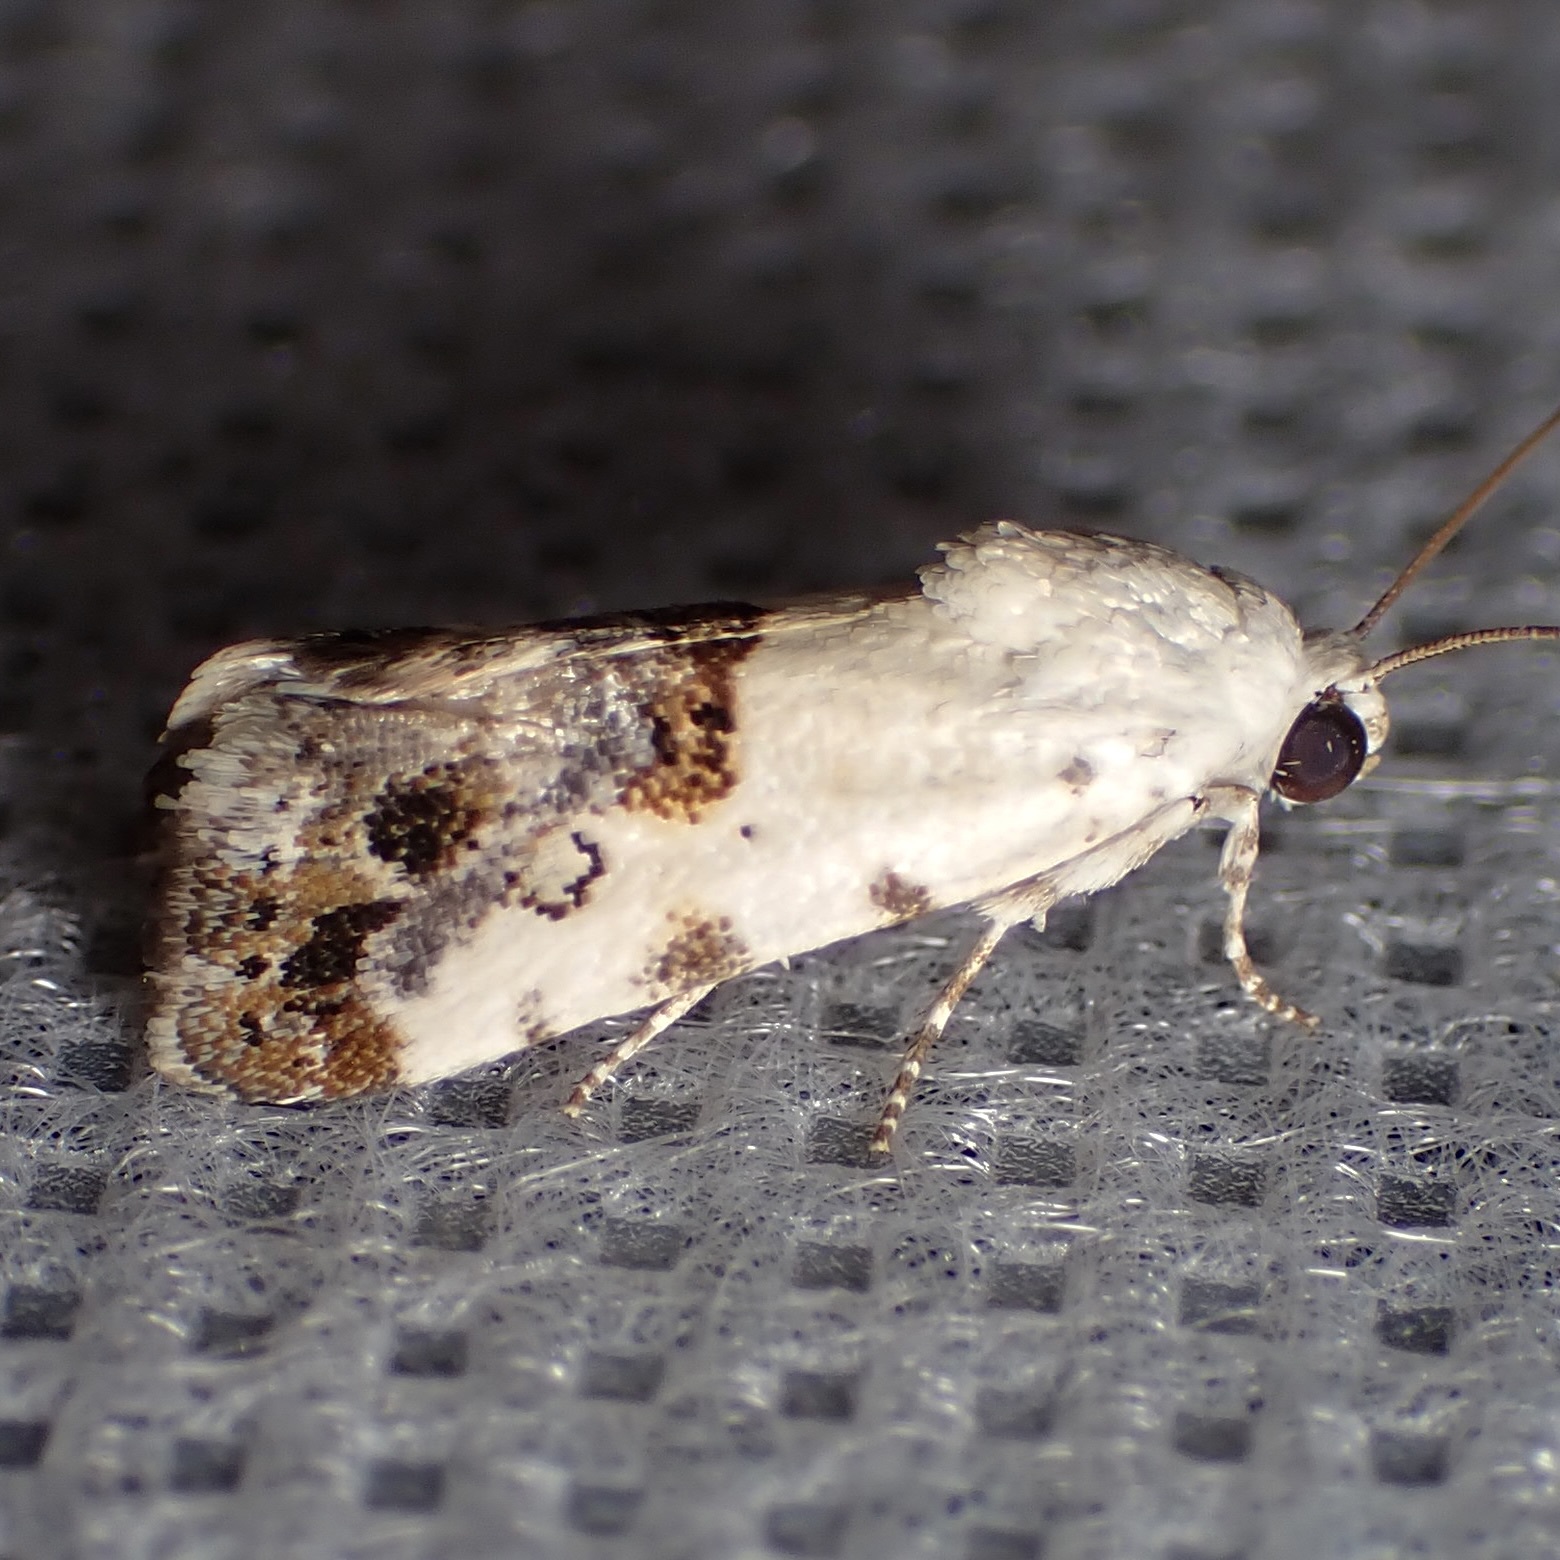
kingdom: Animalia
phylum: Arthropoda
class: Insecta
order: Lepidoptera
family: Noctuidae
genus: Acontia
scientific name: Acontia phecolisca
